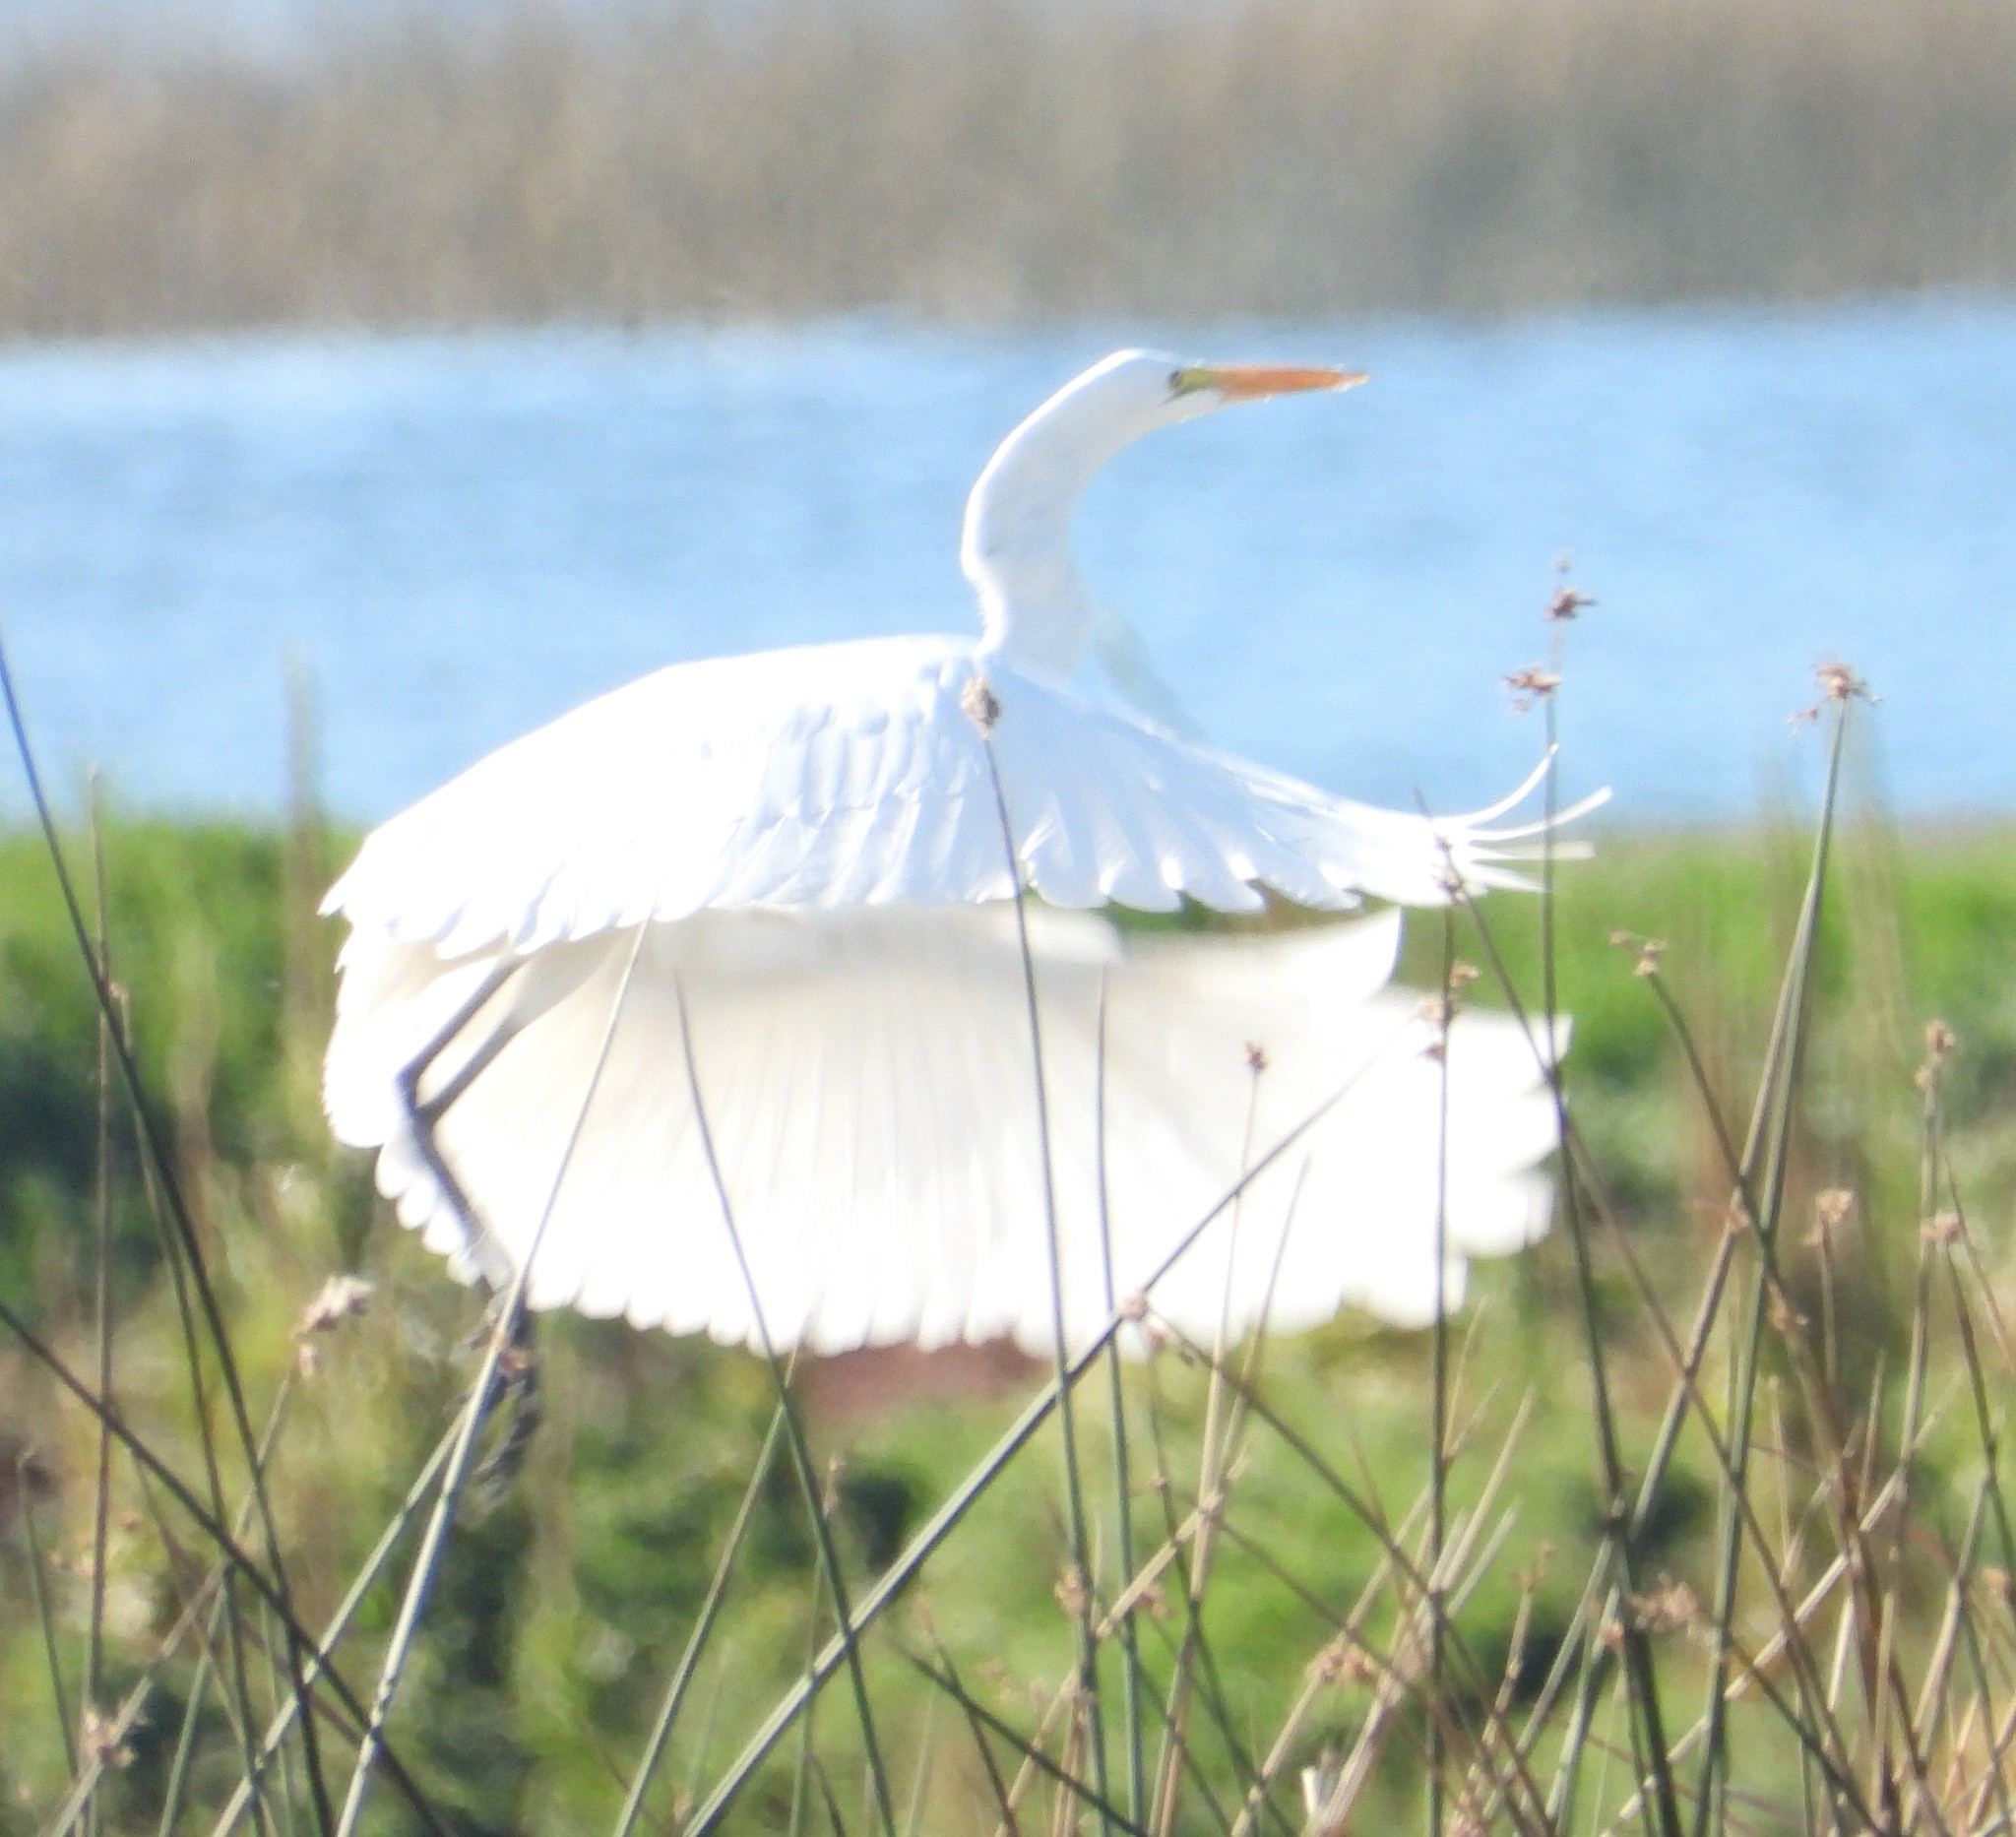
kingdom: Animalia
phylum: Chordata
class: Aves
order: Pelecaniformes
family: Ardeidae
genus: Ardea
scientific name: Ardea alba
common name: Great egret
